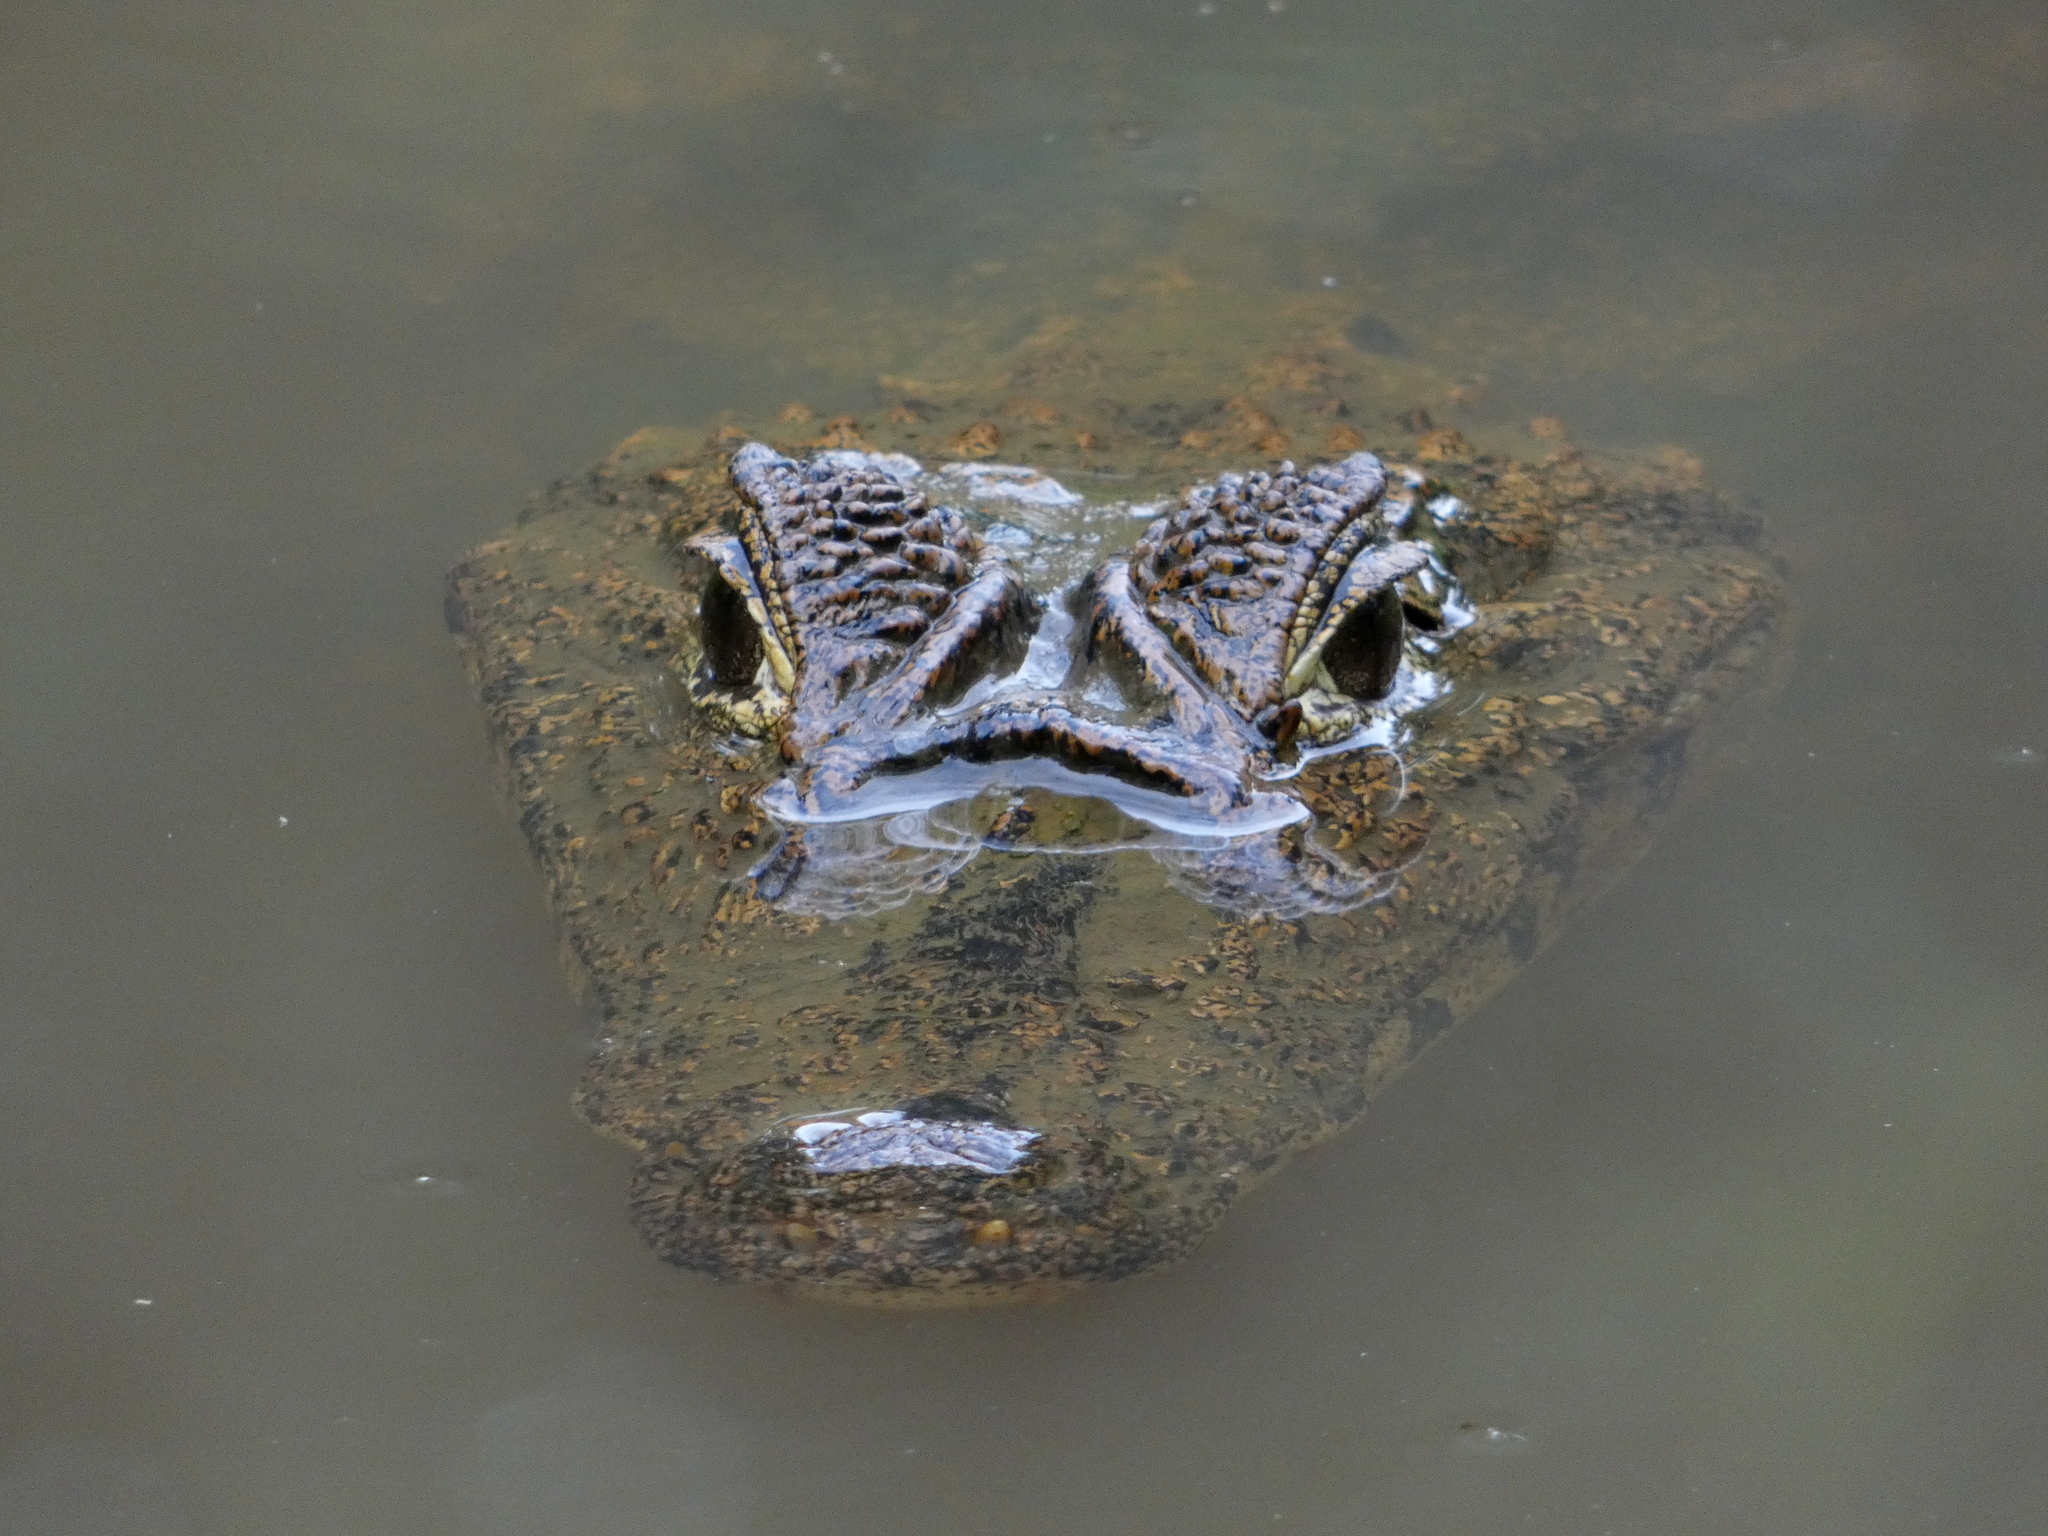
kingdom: Animalia
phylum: Chordata
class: Crocodylia
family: Alligatoridae
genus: Caiman
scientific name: Caiman crocodilus
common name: Common caiman
